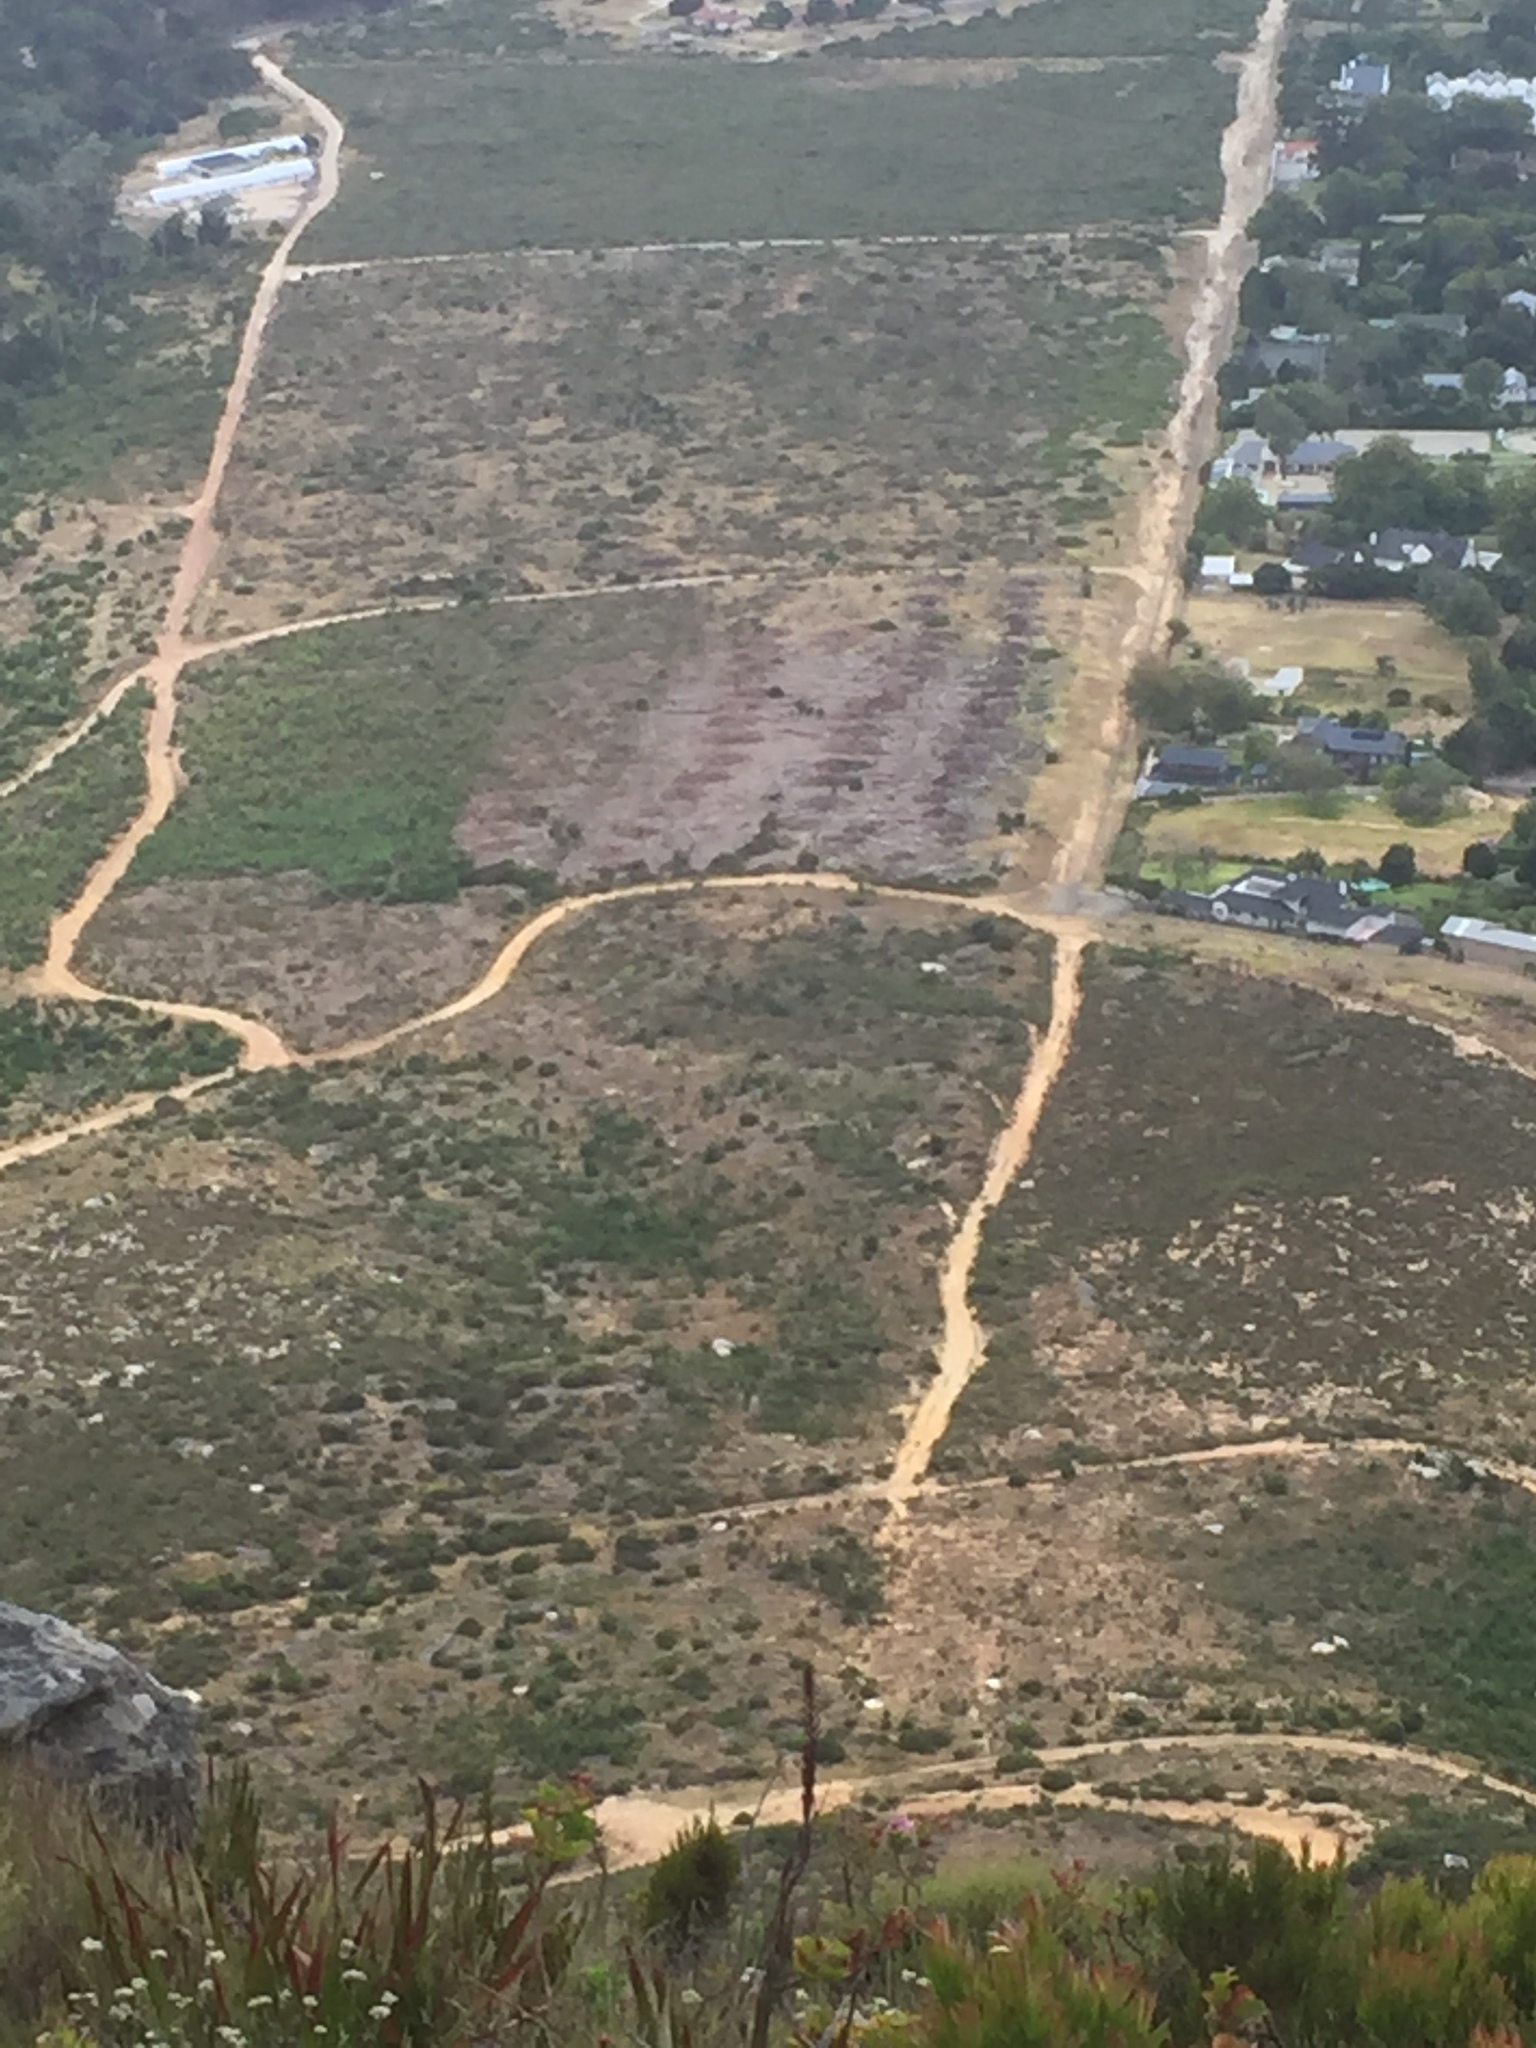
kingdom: Plantae
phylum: Tracheophyta
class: Magnoliopsida
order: Fabales
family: Fabaceae
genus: Acacia
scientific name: Acacia longifolia
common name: Sydney golden wattle
